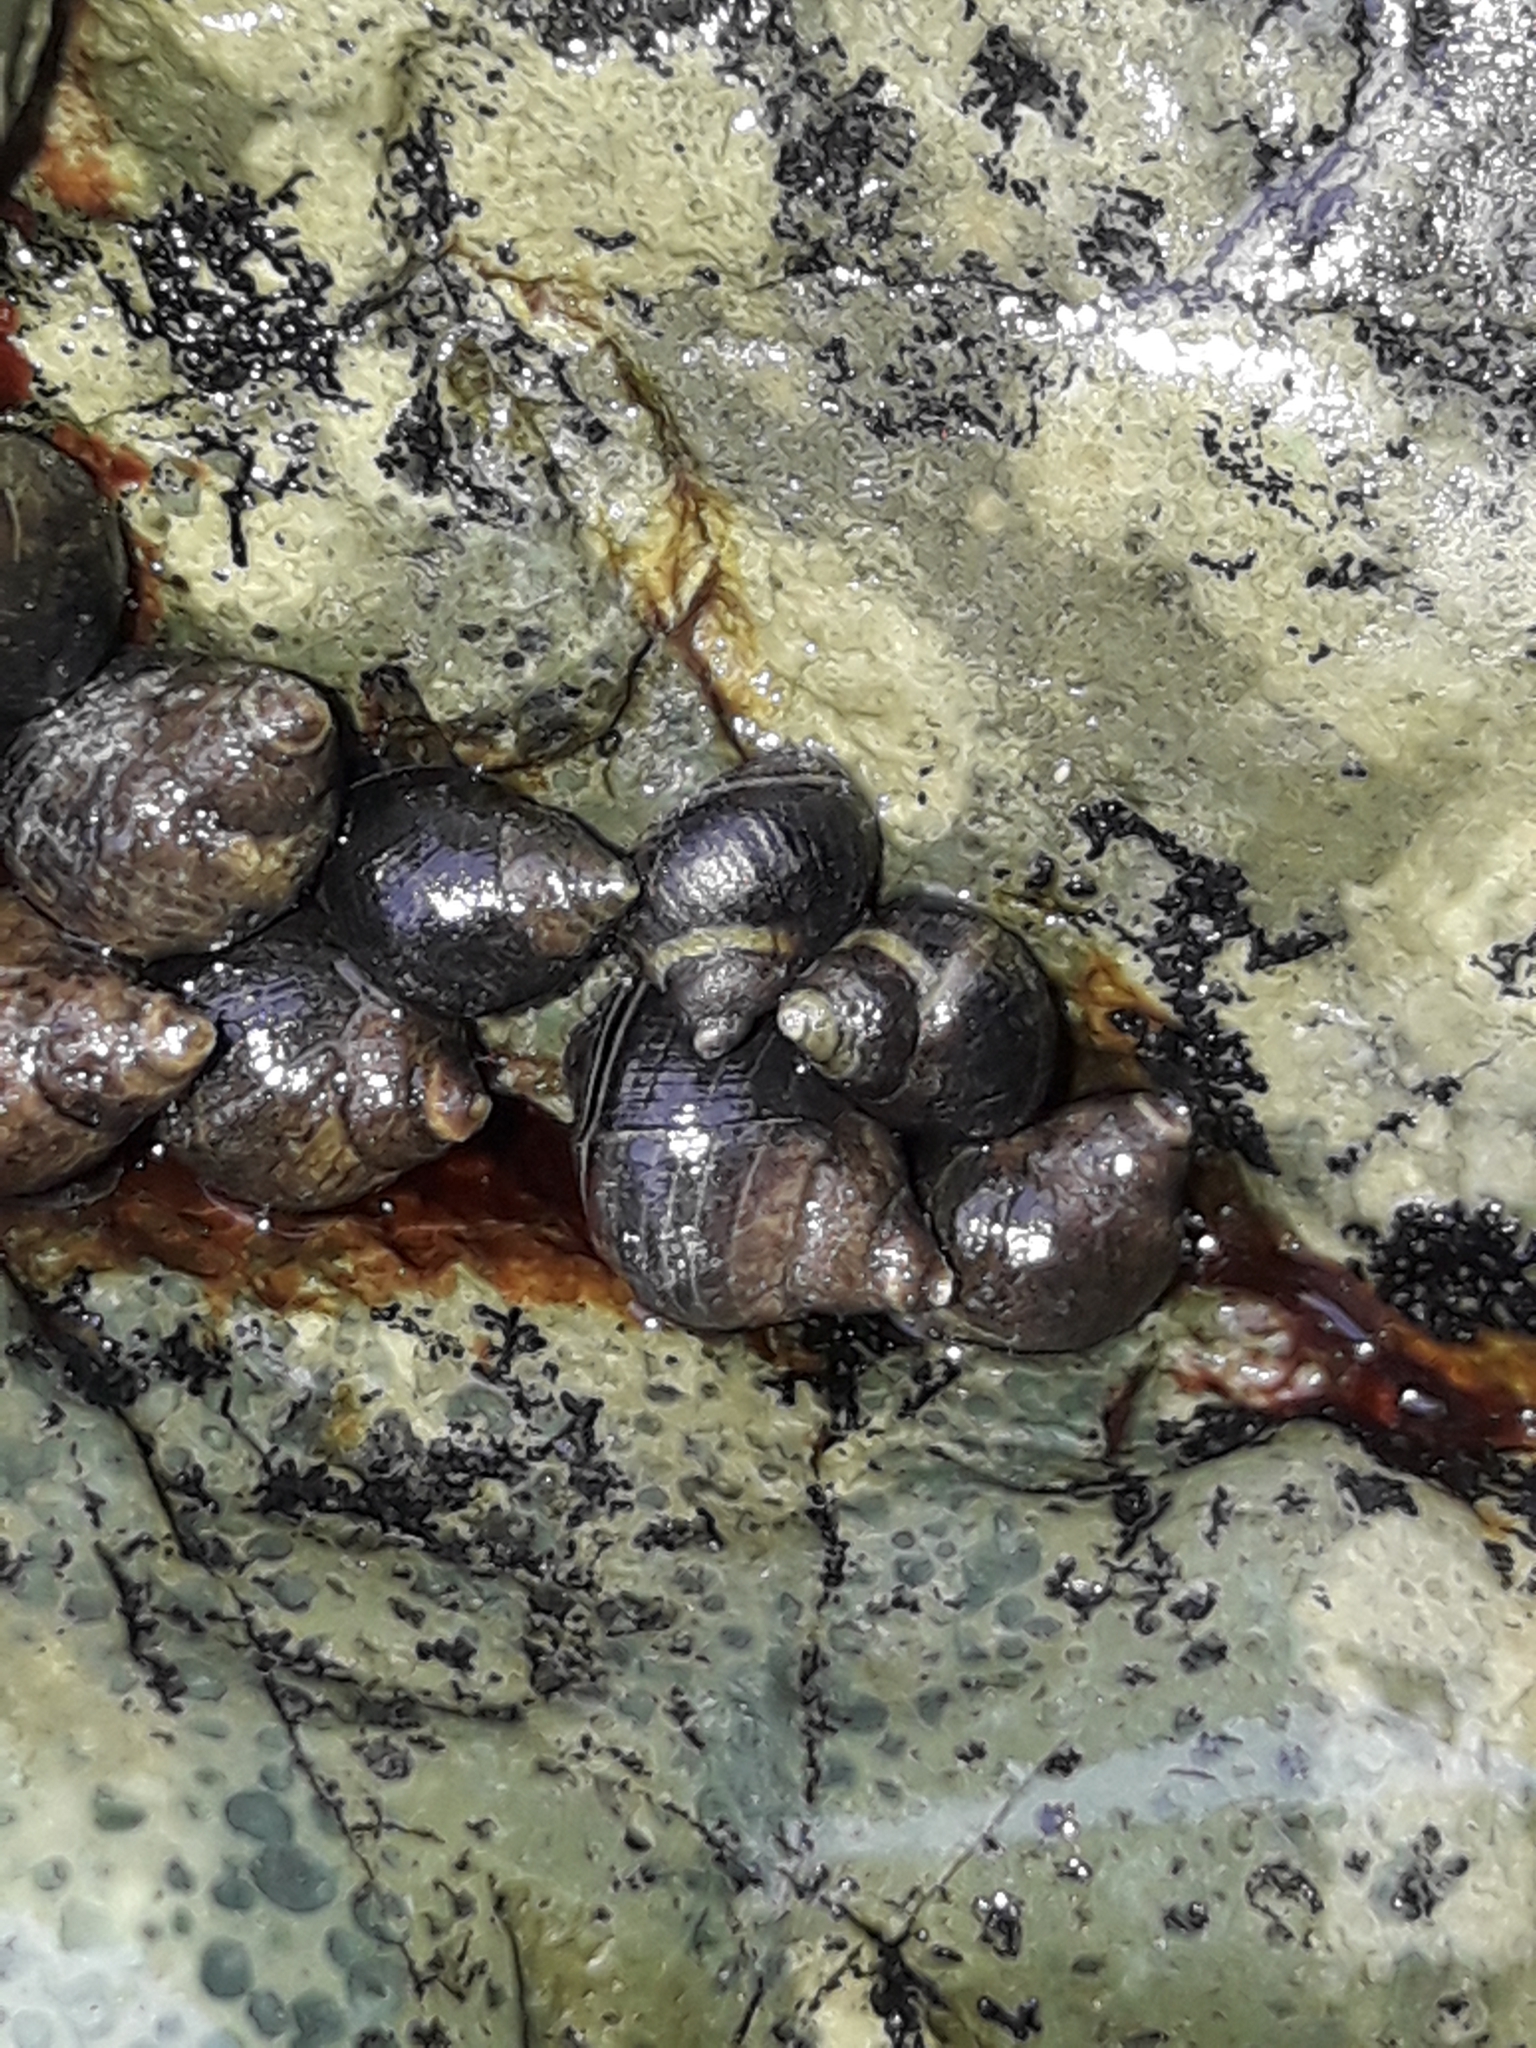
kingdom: Animalia
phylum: Mollusca
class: Gastropoda
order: Littorinimorpha
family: Littorinidae
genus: Austrolittorina
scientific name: Austrolittorina cincta
